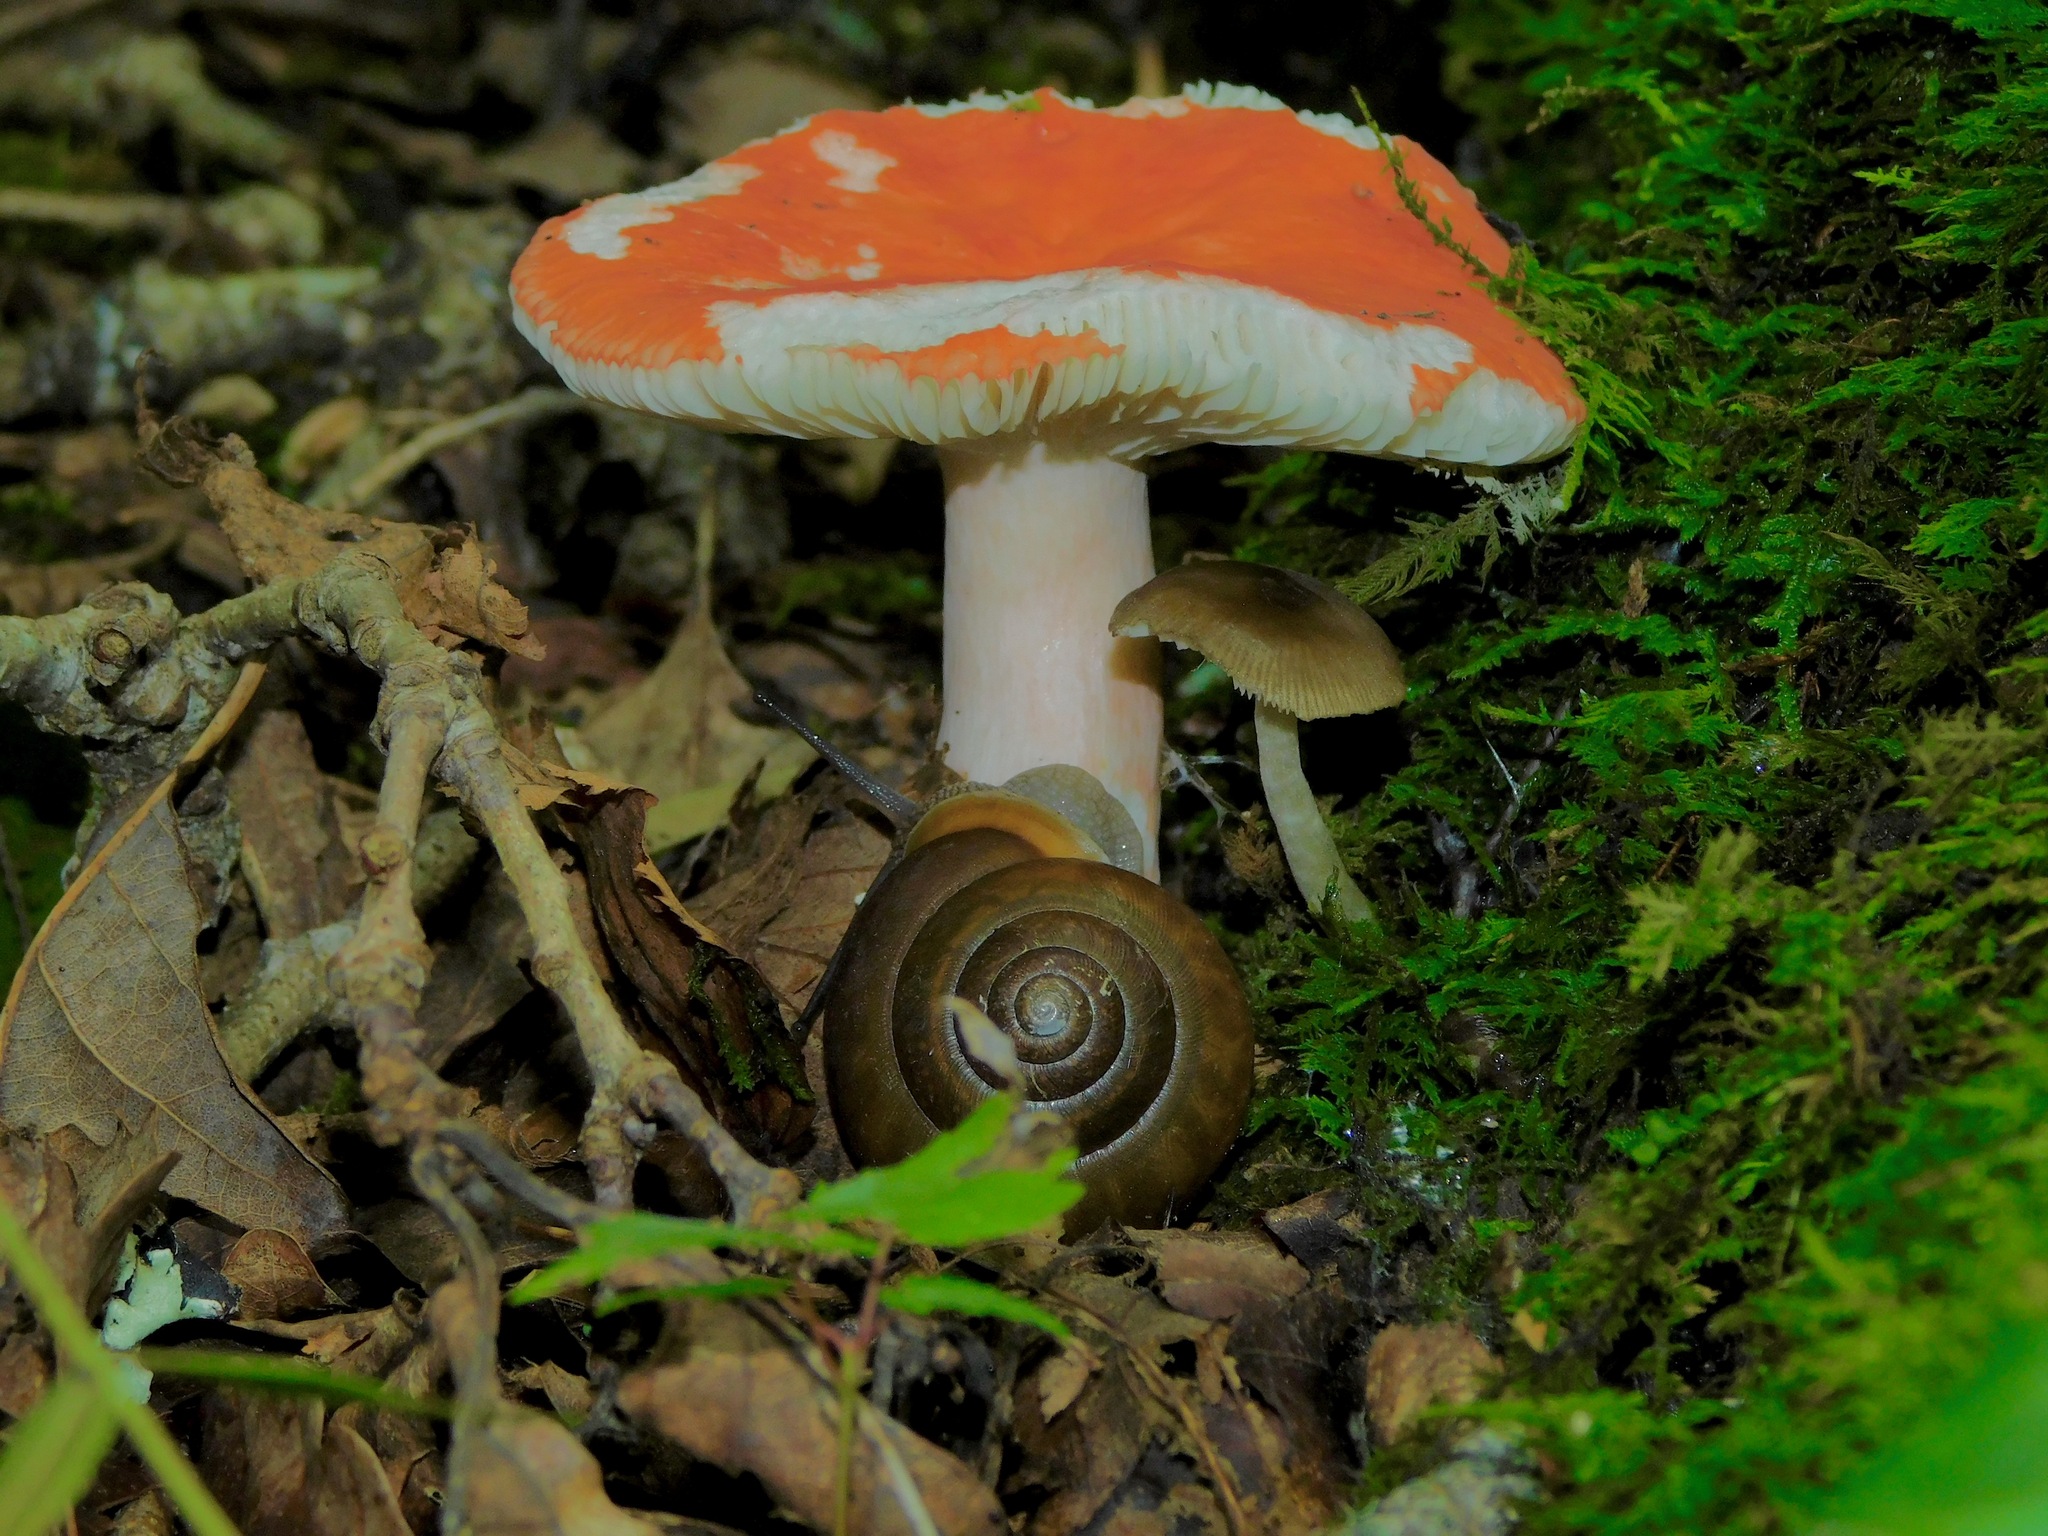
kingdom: Fungi
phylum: Basidiomycota
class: Agaricomycetes
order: Russulales
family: Russulaceae
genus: Russula
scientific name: Russula
